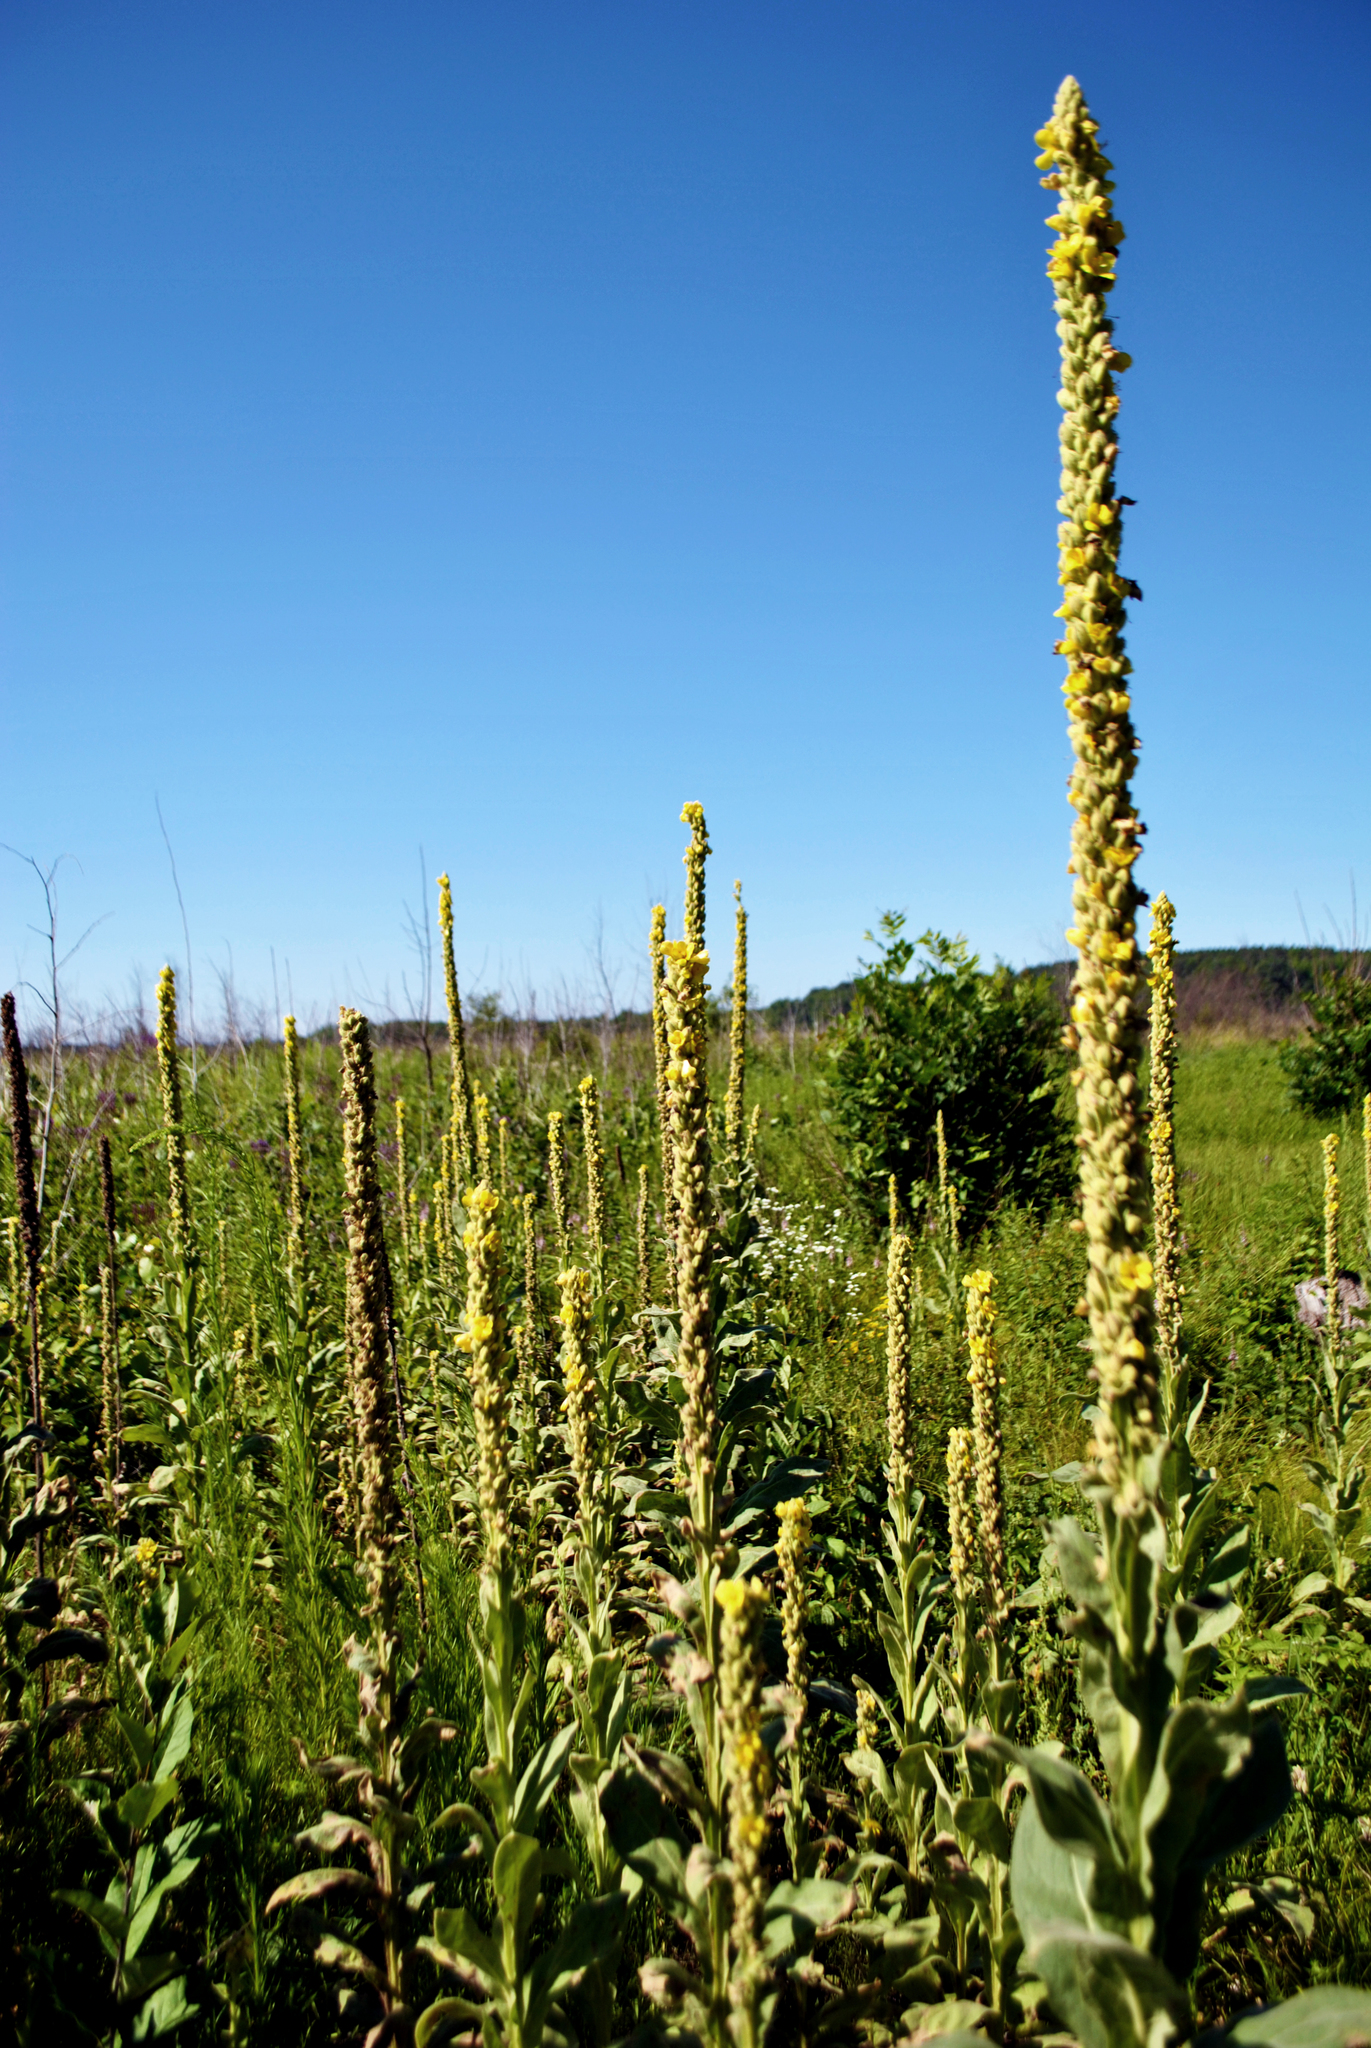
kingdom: Plantae
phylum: Tracheophyta
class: Magnoliopsida
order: Lamiales
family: Scrophulariaceae
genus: Verbascum
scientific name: Verbascum thapsus
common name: Common mullein
